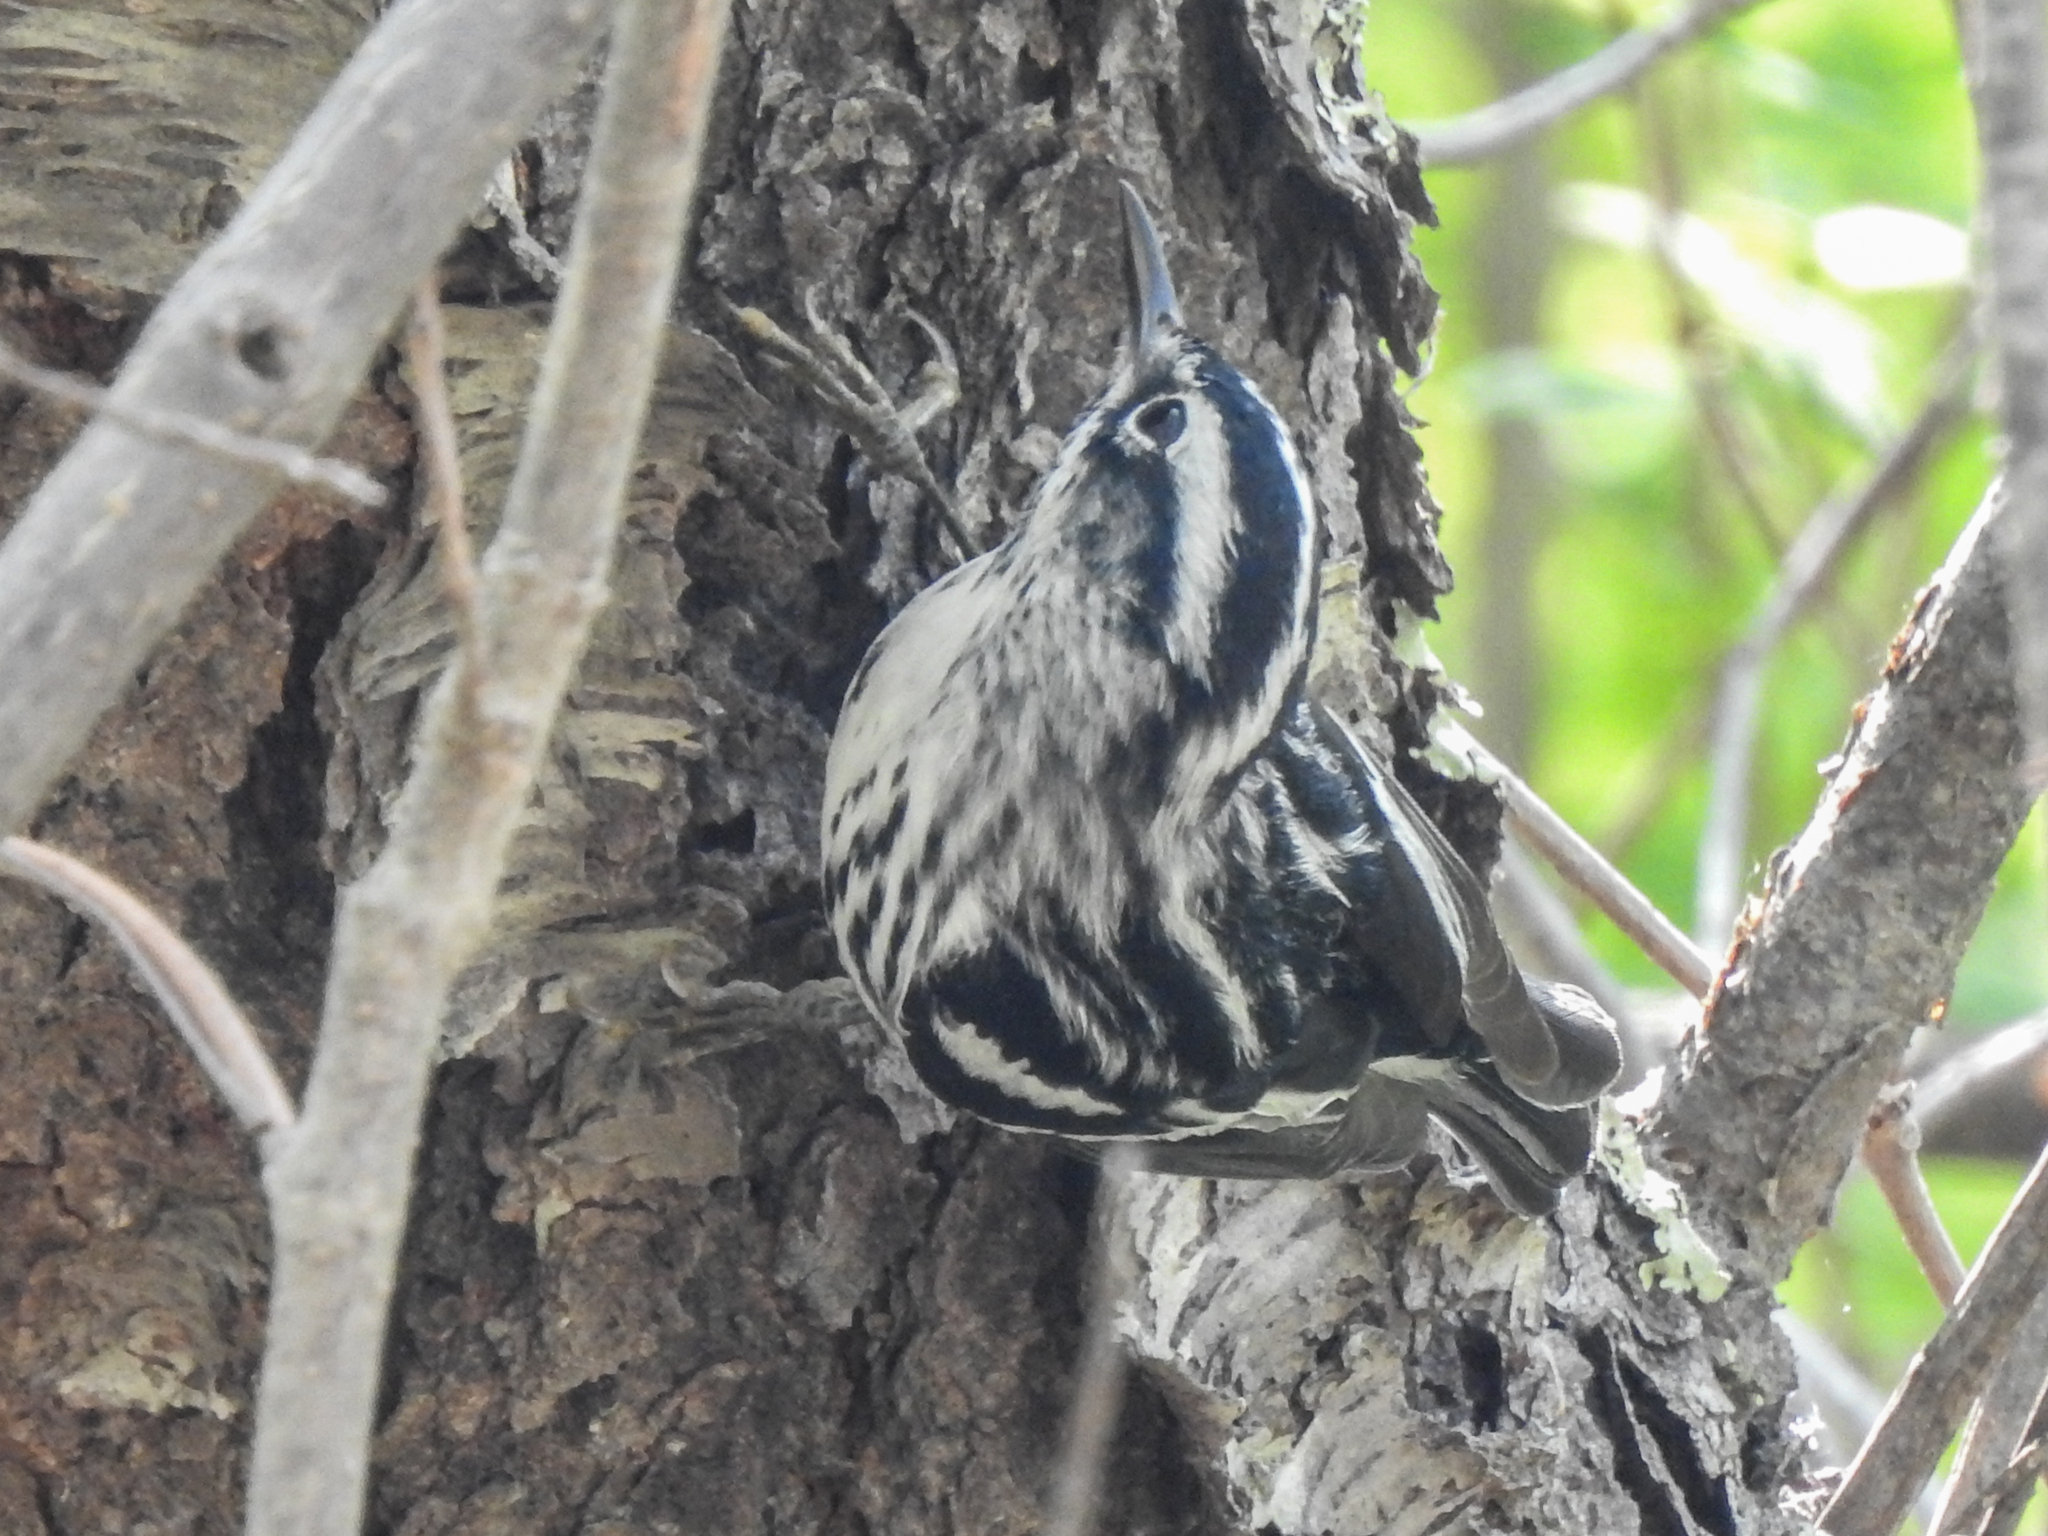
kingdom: Animalia
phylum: Chordata
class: Aves
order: Passeriformes
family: Parulidae
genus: Mniotilta
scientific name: Mniotilta varia
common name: Black-and-white warbler
